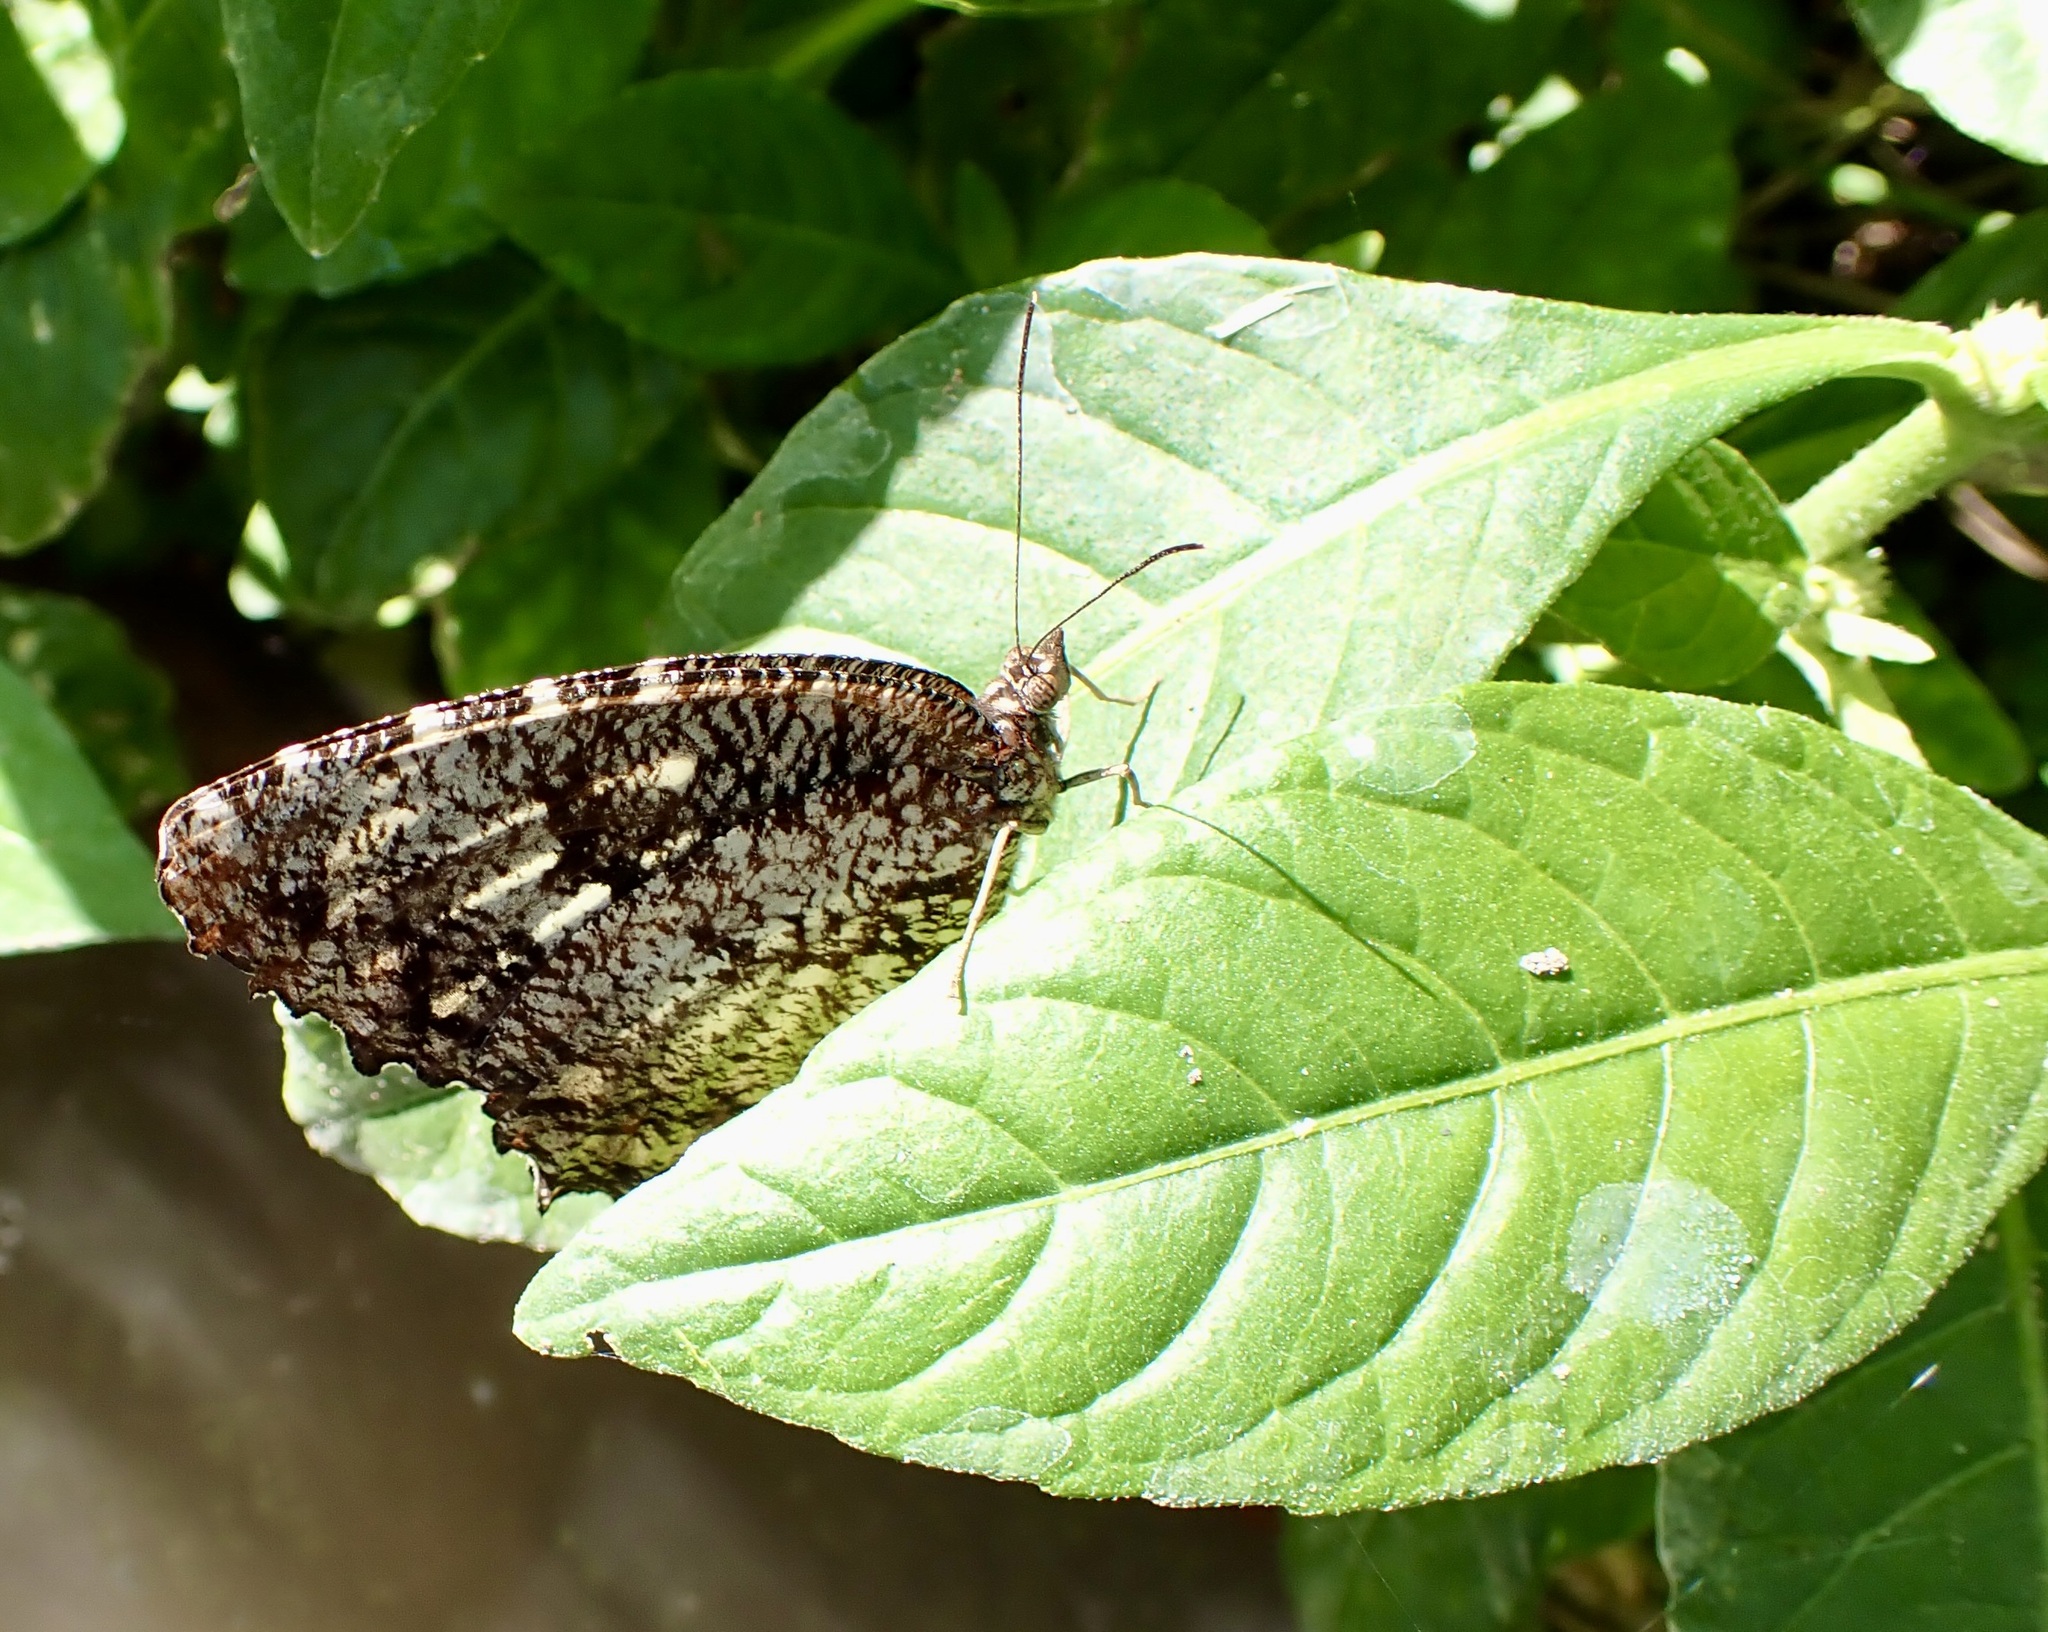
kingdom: Animalia
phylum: Arthropoda
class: Insecta
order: Lepidoptera
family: Nymphalidae
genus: Elymnias
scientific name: Elymnias nesaea
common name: Tiger palmfly
